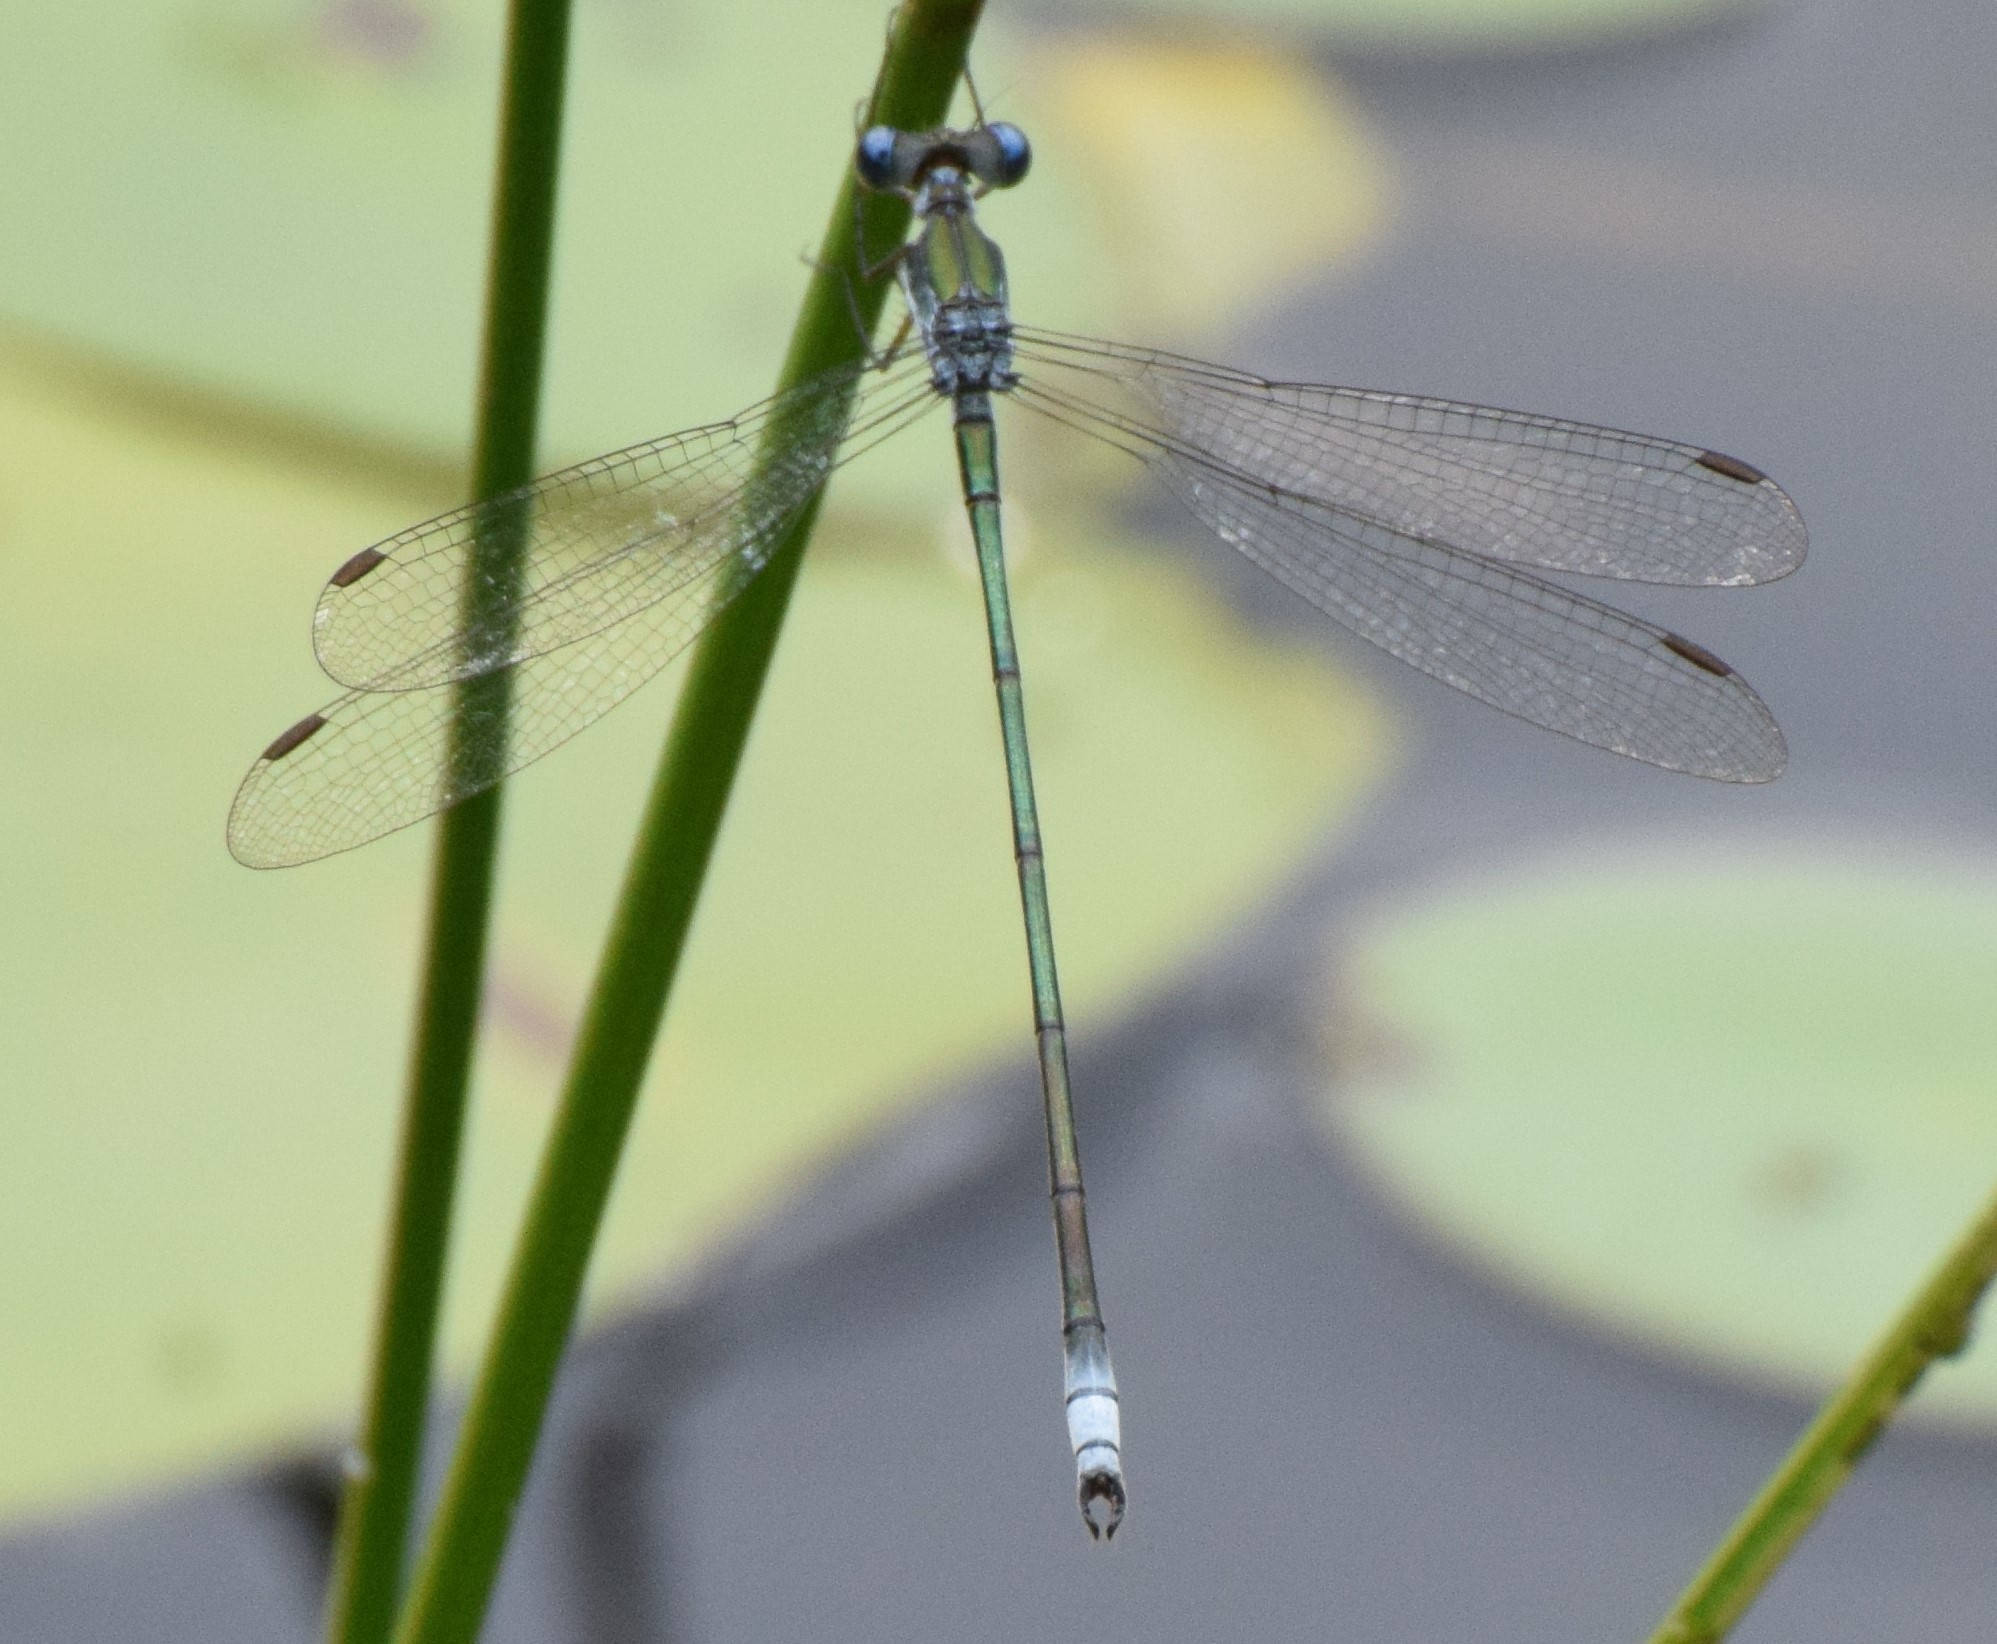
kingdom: Animalia
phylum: Arthropoda
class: Insecta
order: Odonata
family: Lestidae
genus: Lestes
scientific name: Lestes vigilax
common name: Swamp spreadwing
